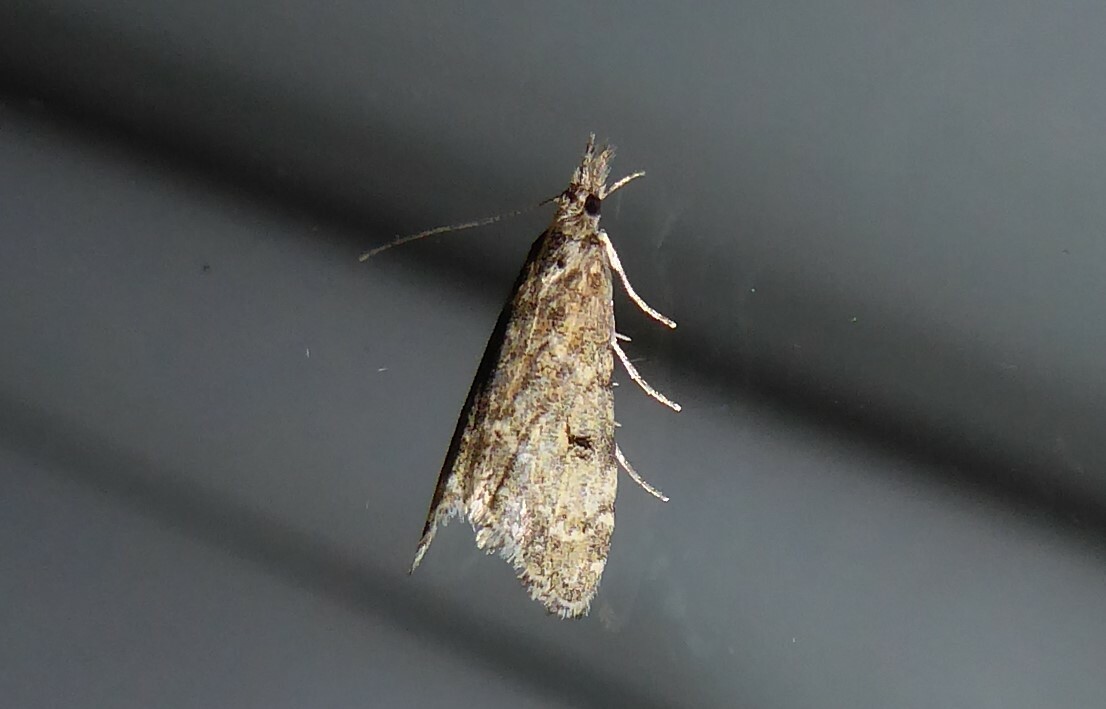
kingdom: Animalia
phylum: Arthropoda
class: Insecta
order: Lepidoptera
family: Crambidae
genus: Glaucocharis
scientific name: Glaucocharis elaina
